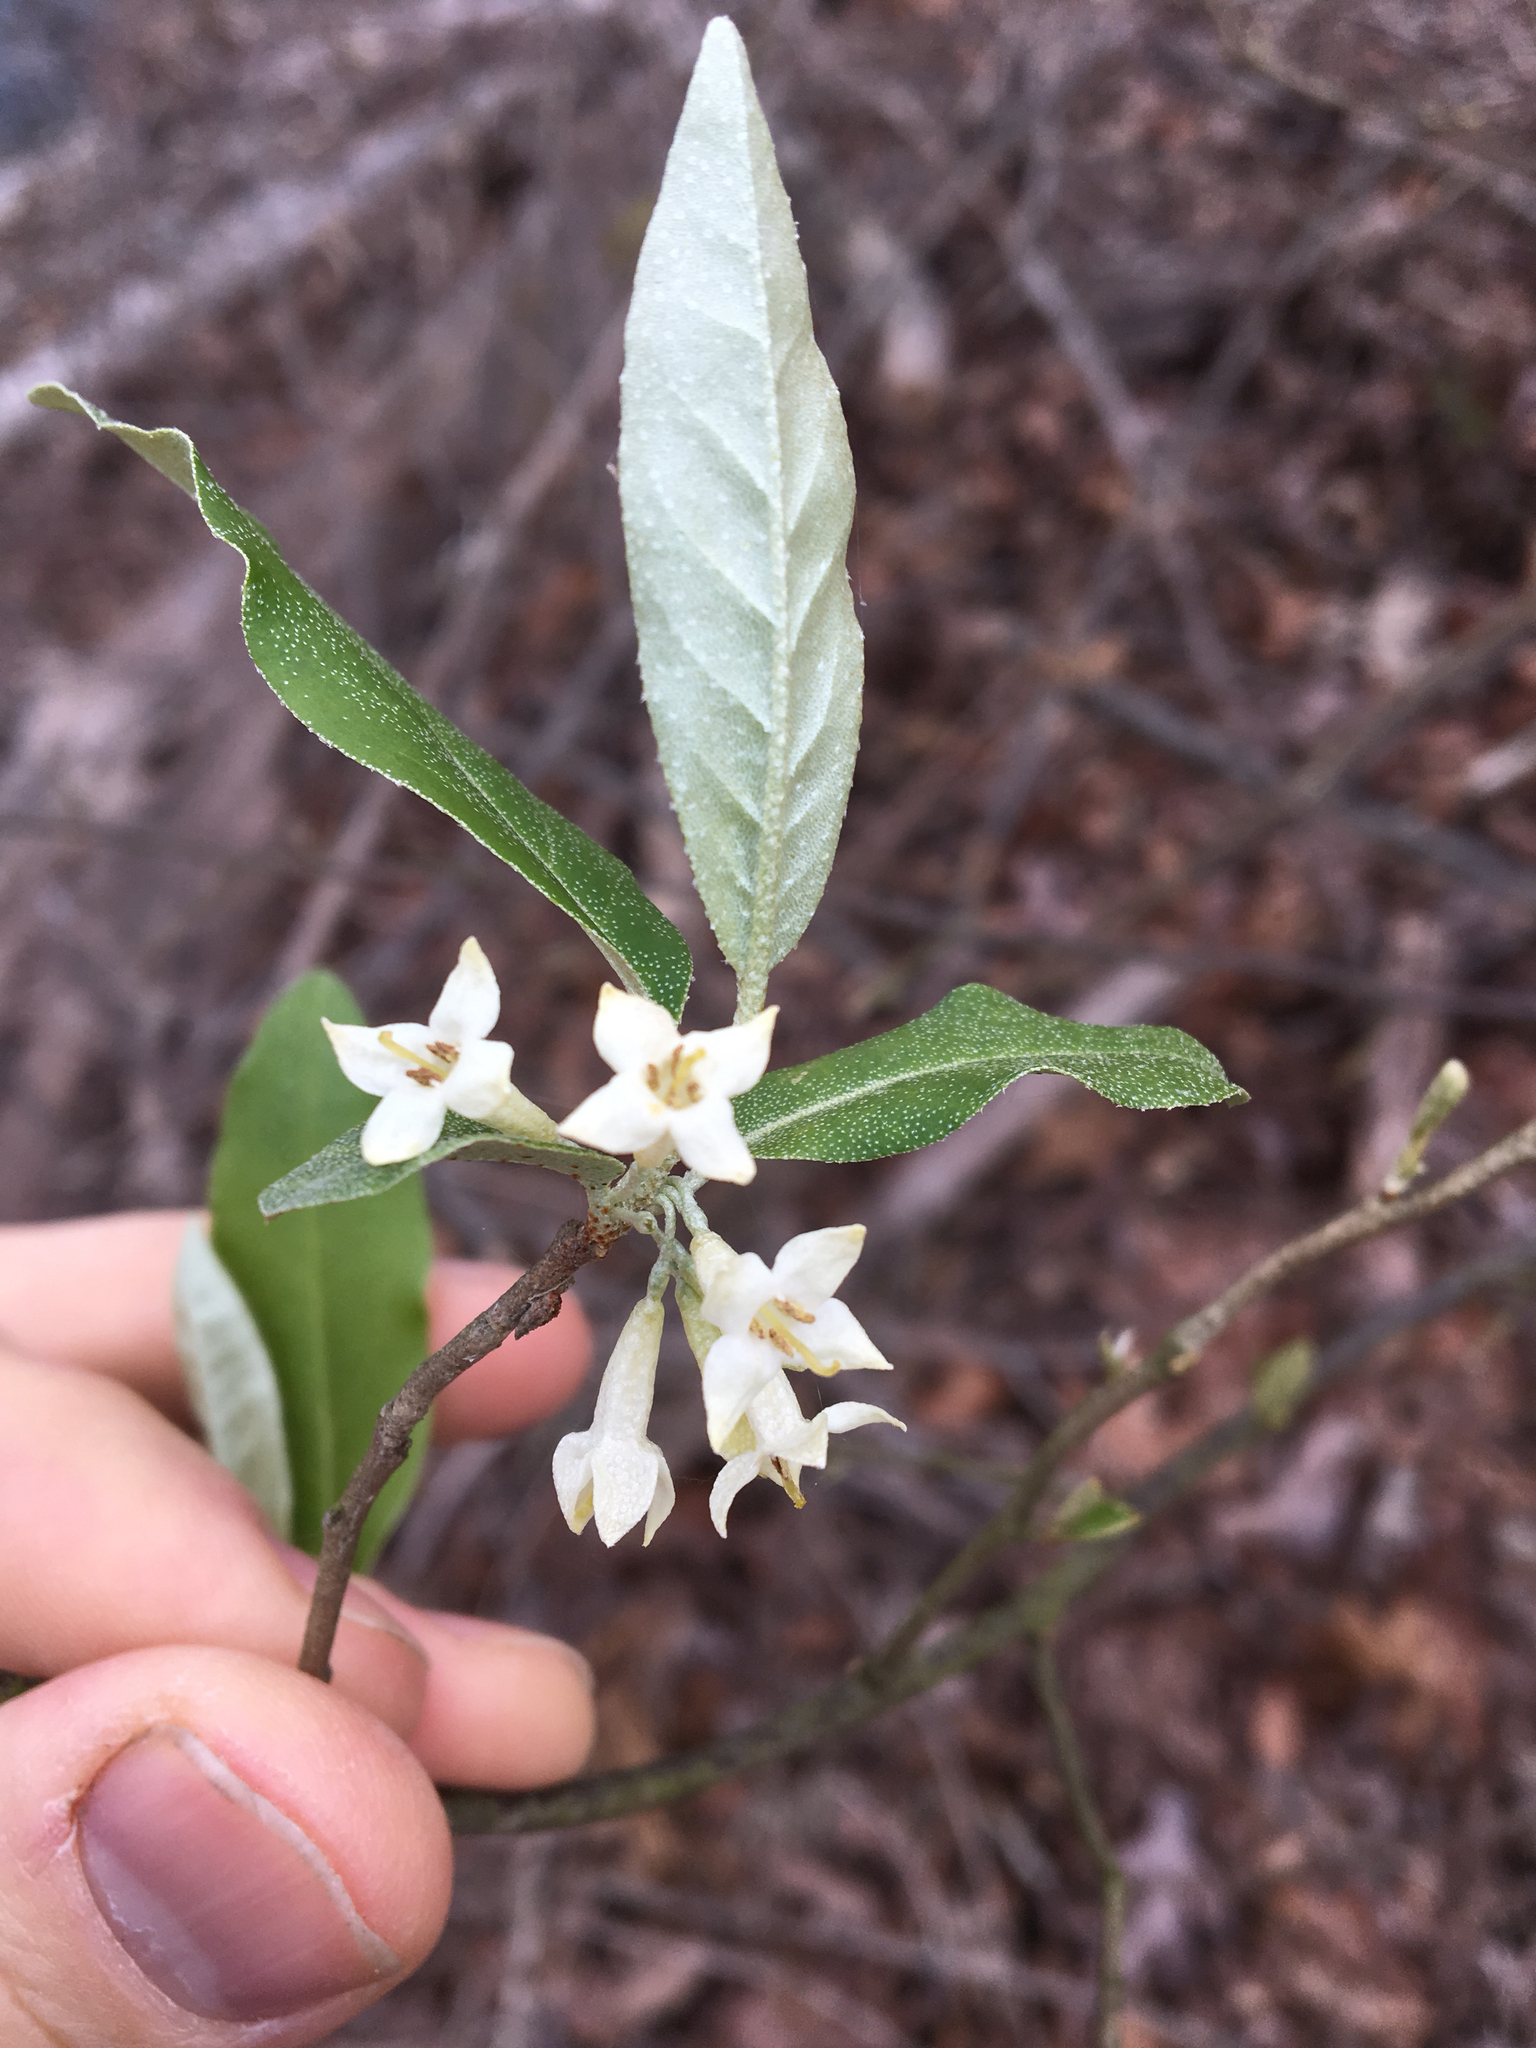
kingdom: Plantae
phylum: Tracheophyta
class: Magnoliopsida
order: Rosales
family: Elaeagnaceae
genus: Elaeagnus
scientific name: Elaeagnus umbellata
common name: Autumn olive
